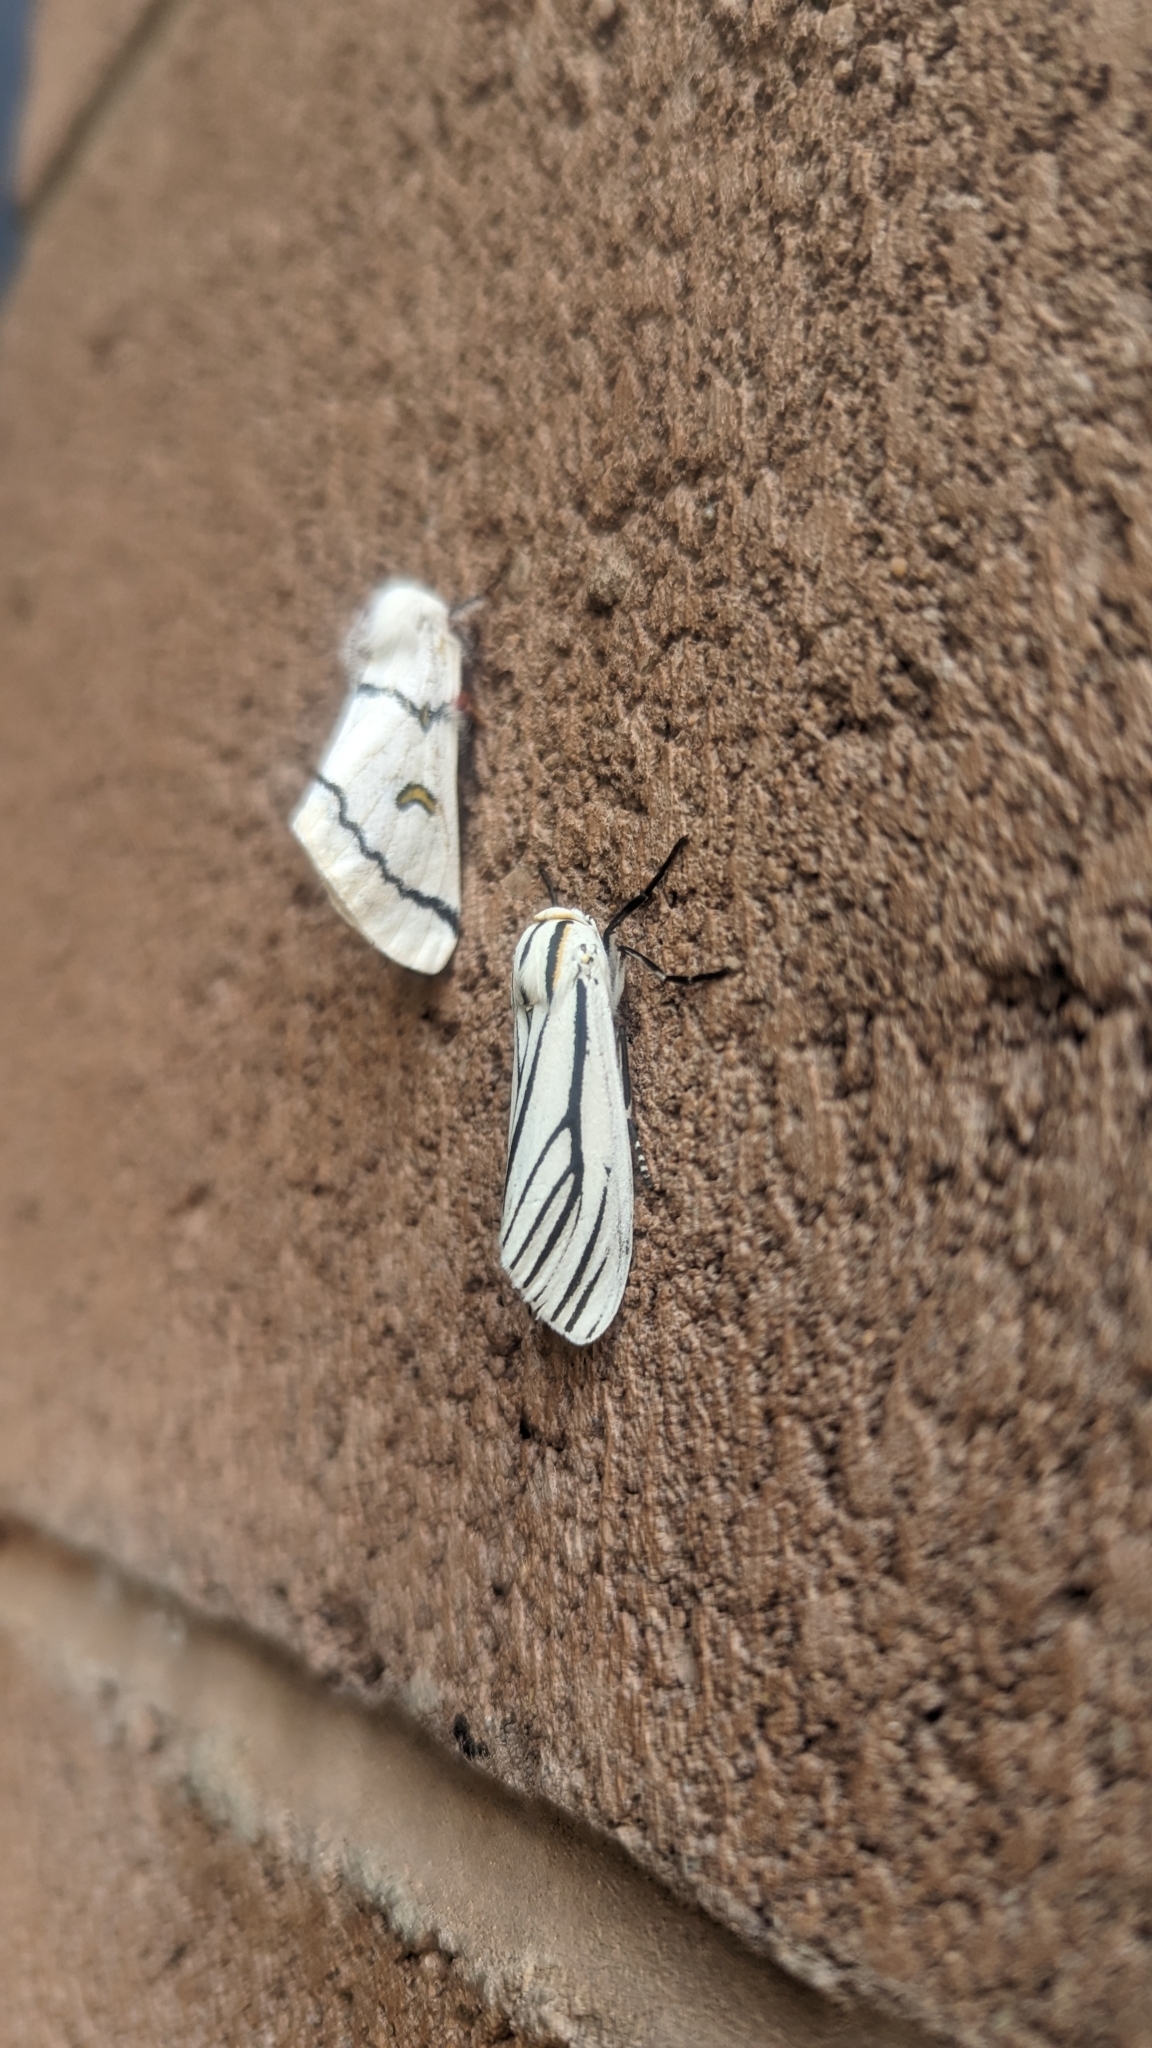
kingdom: Animalia
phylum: Arthropoda
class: Insecta
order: Lepidoptera
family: Erebidae
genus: Ectypia
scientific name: Ectypia clio
